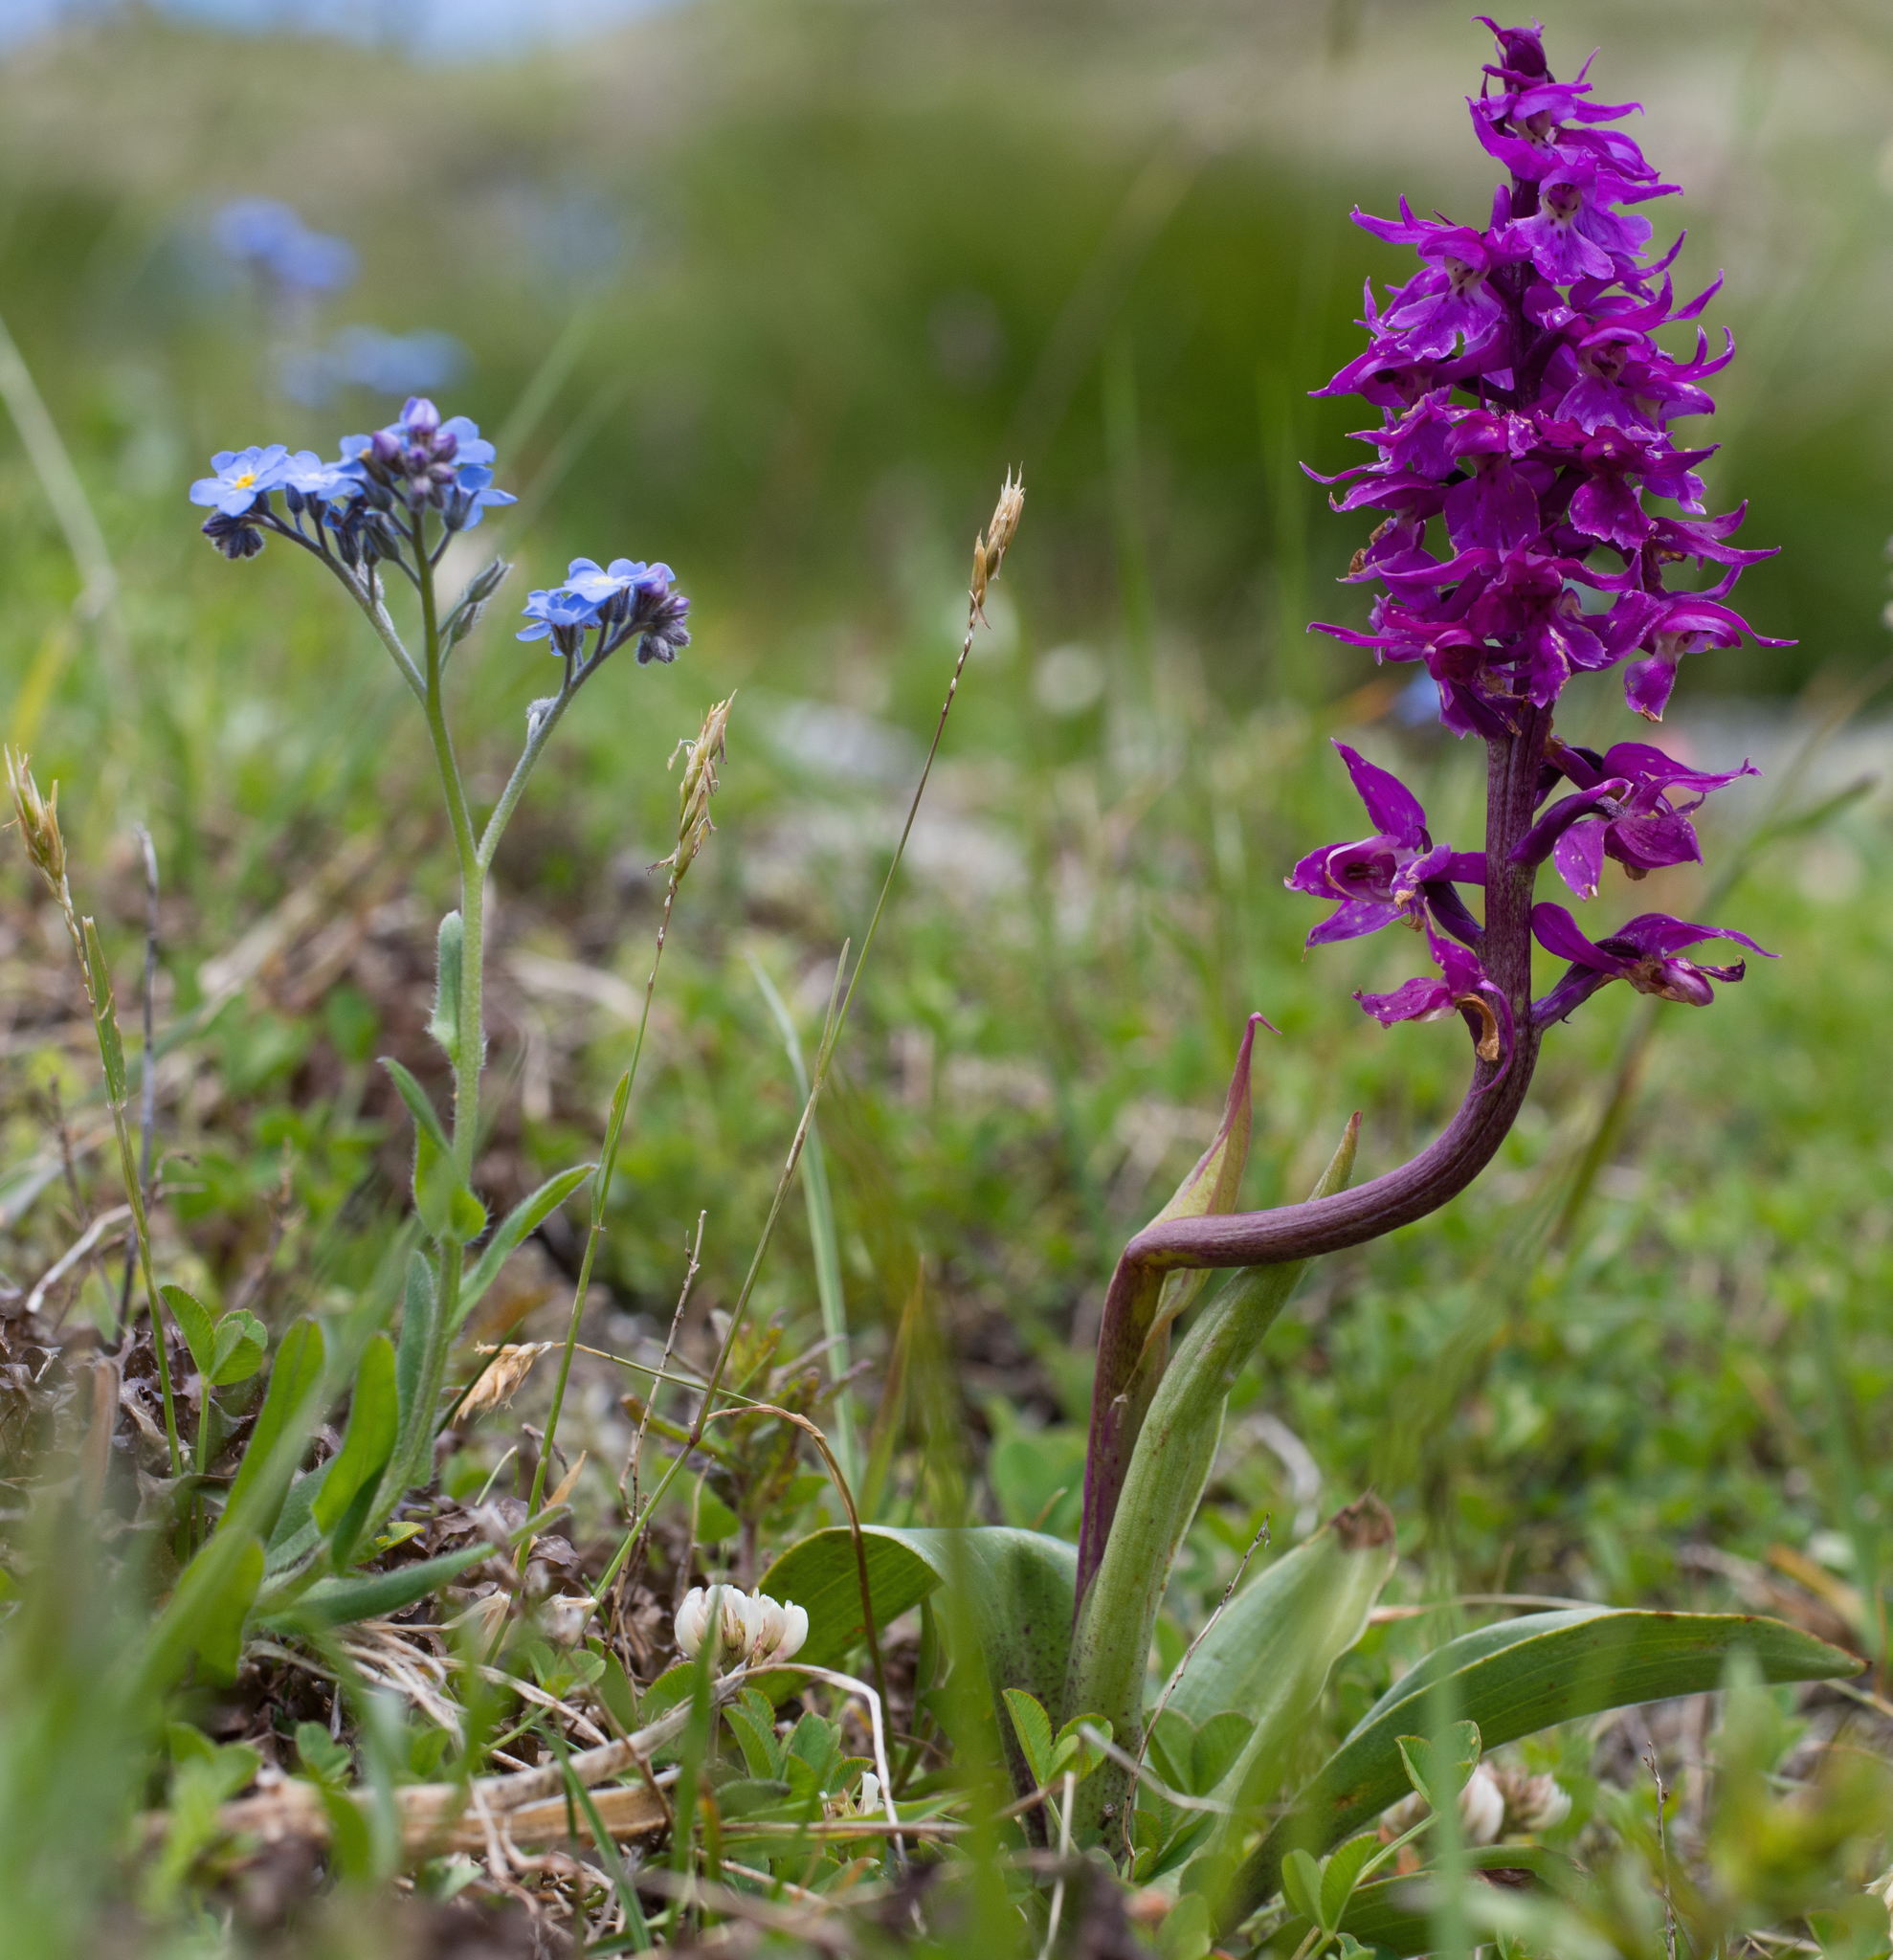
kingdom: Plantae
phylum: Tracheophyta
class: Liliopsida
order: Asparagales
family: Orchidaceae
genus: Orchis
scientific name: Orchis mascula
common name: Early-purple orchid
